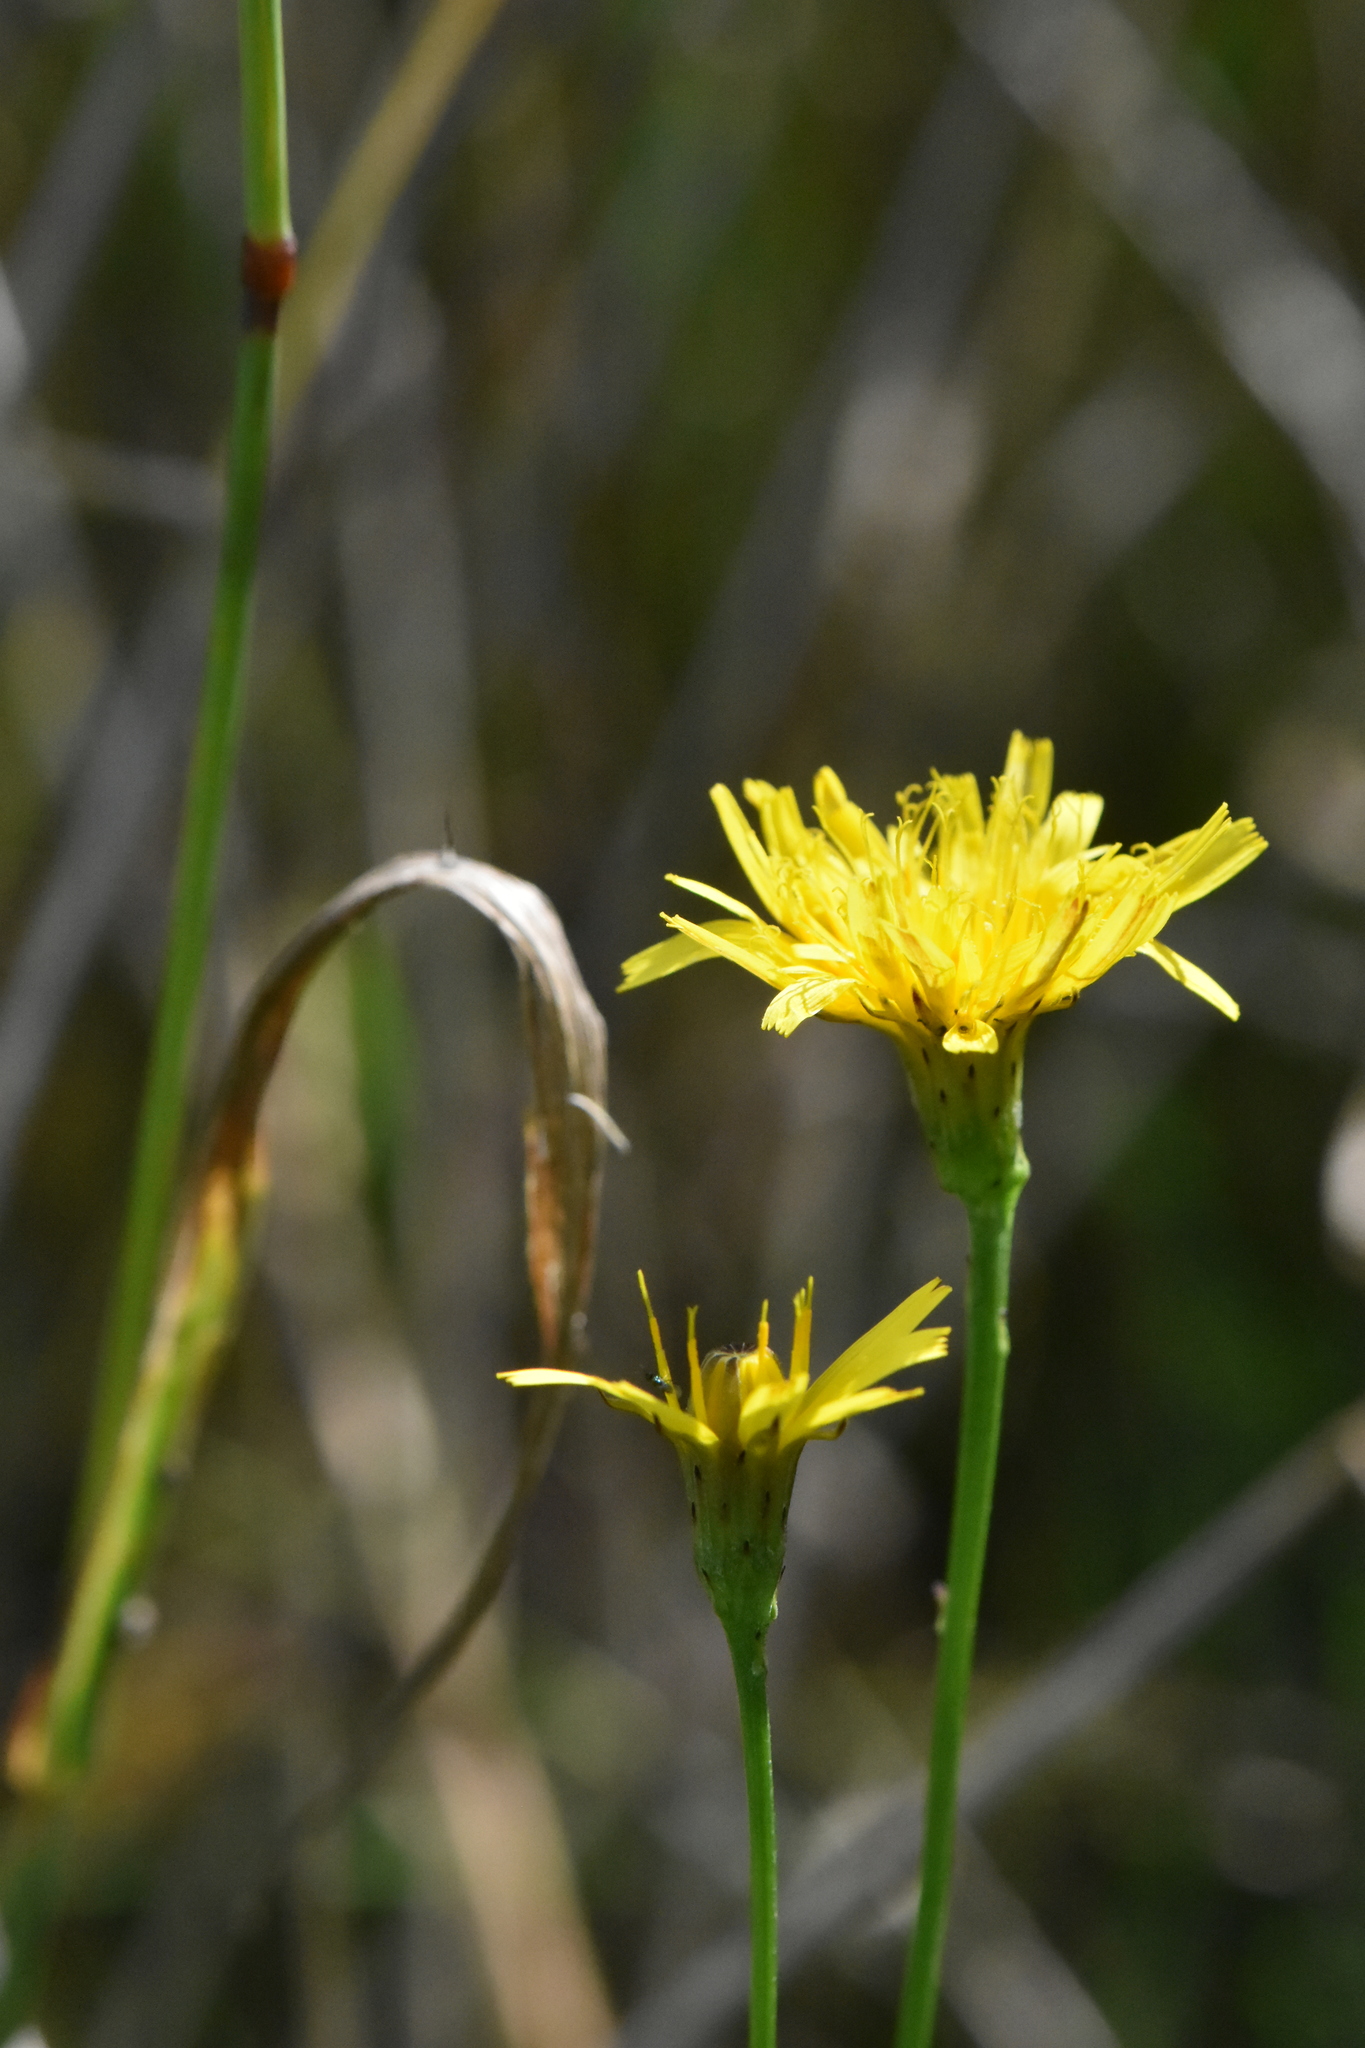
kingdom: Plantae
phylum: Tracheophyta
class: Magnoliopsida
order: Asterales
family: Asteraceae
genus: Scorzoneroides
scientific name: Scorzoneroides autumnalis
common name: Autumn hawkbit
